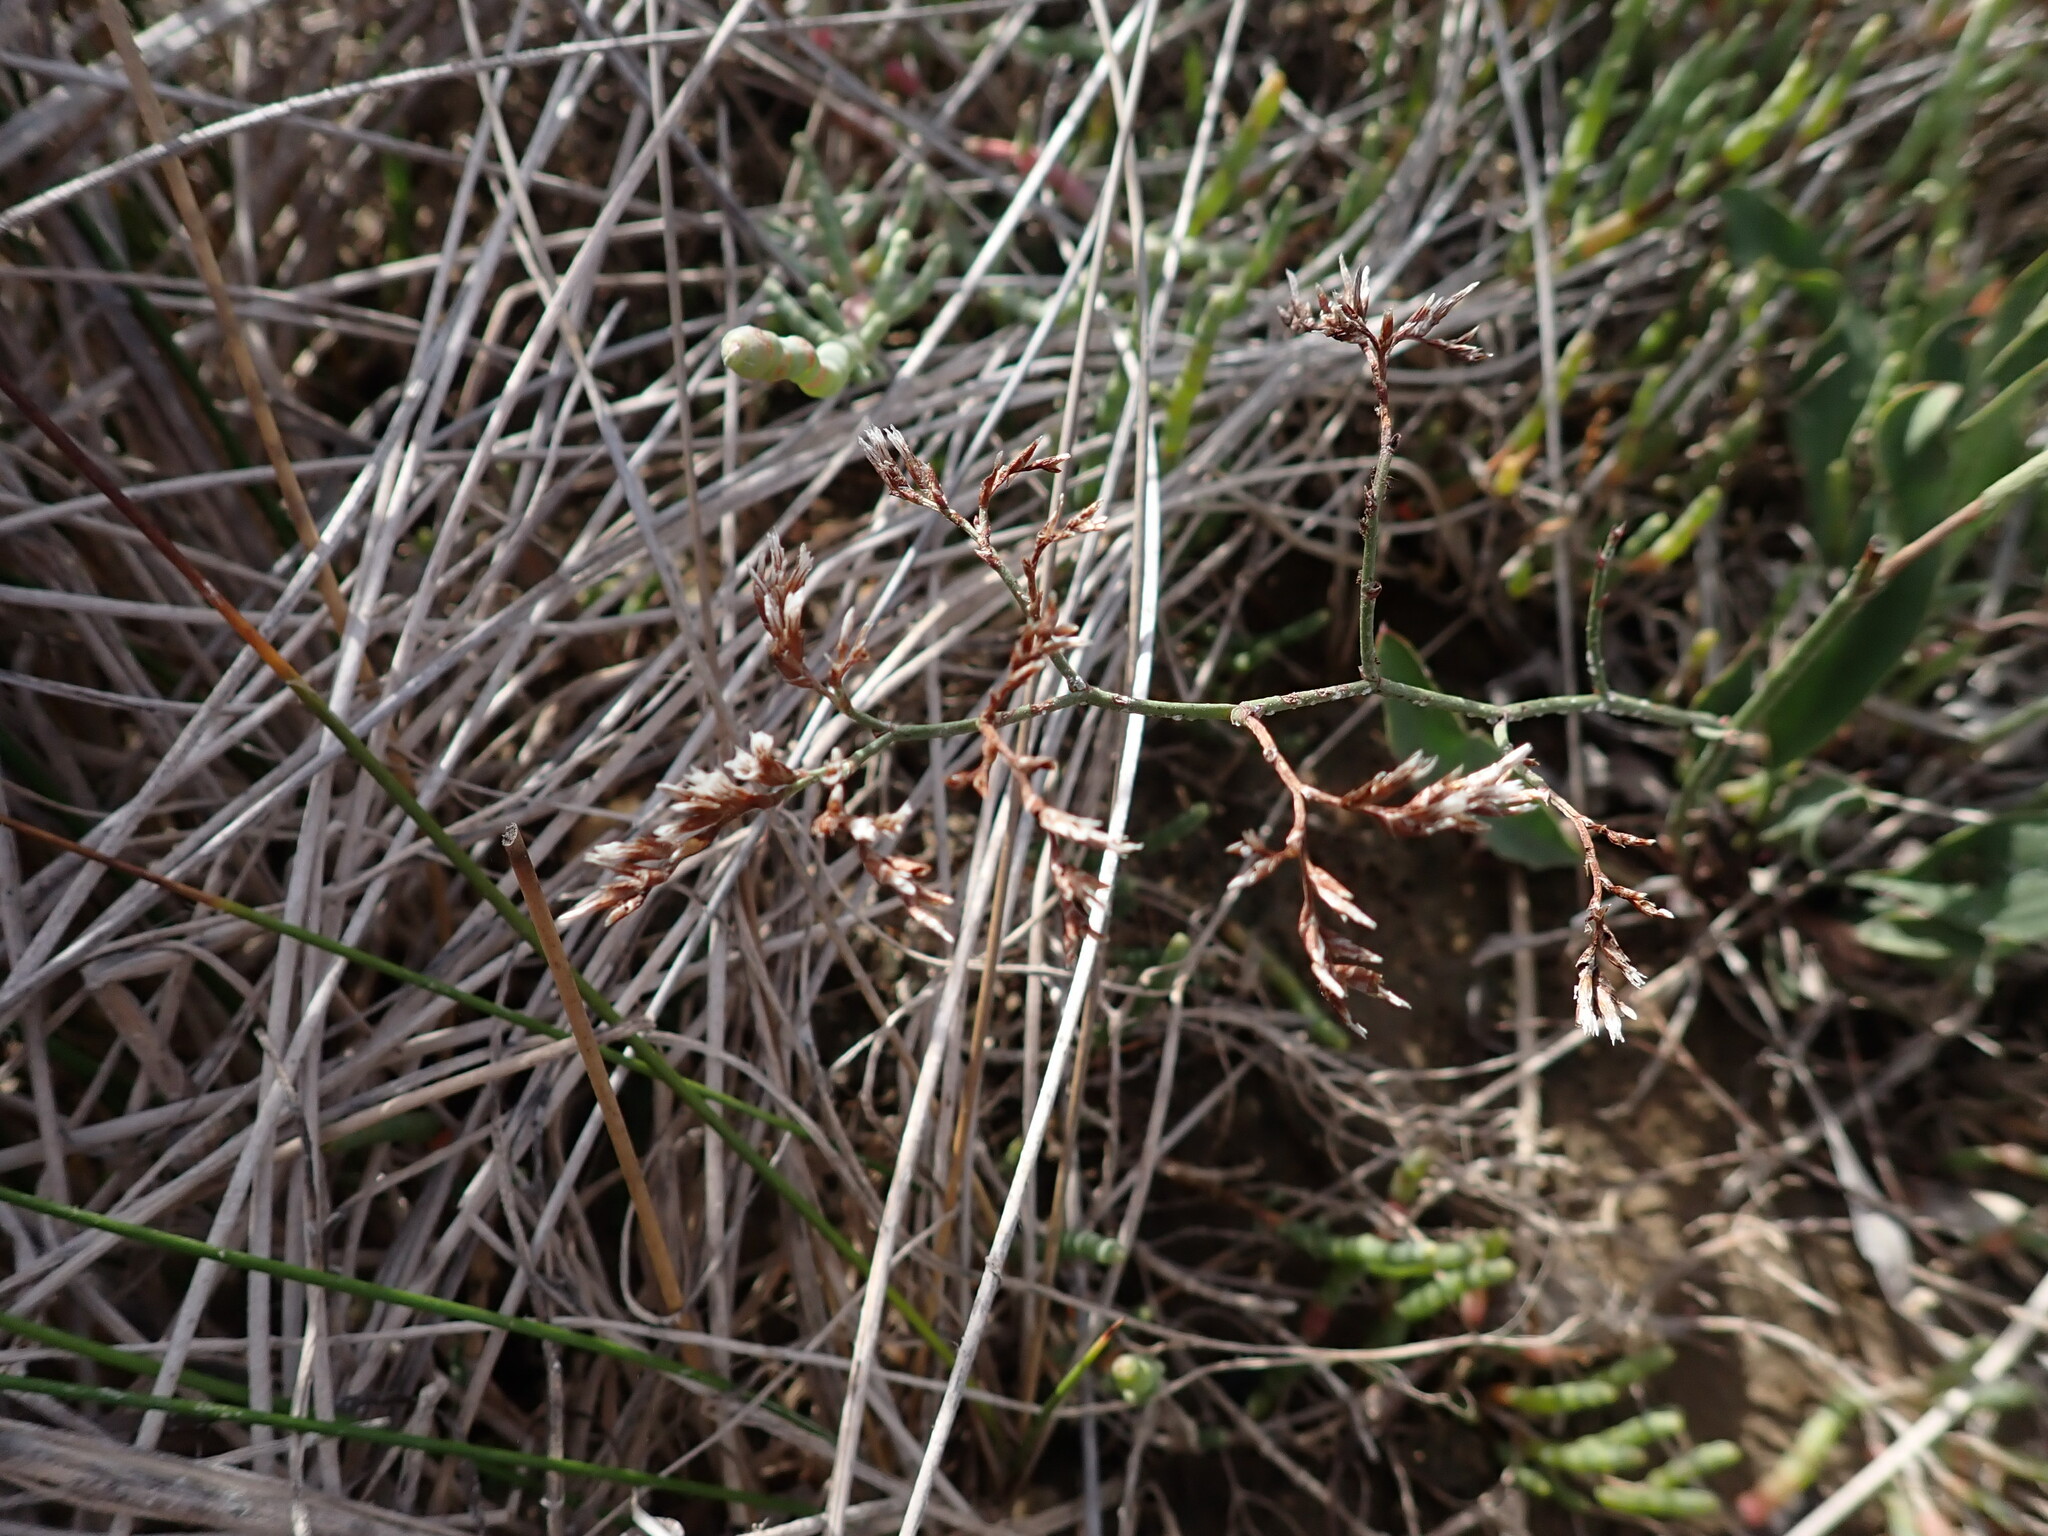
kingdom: Plantae
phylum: Tracheophyta
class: Magnoliopsida
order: Caryophyllales
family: Plumbaginaceae
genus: Limonium
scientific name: Limonium narbonense
